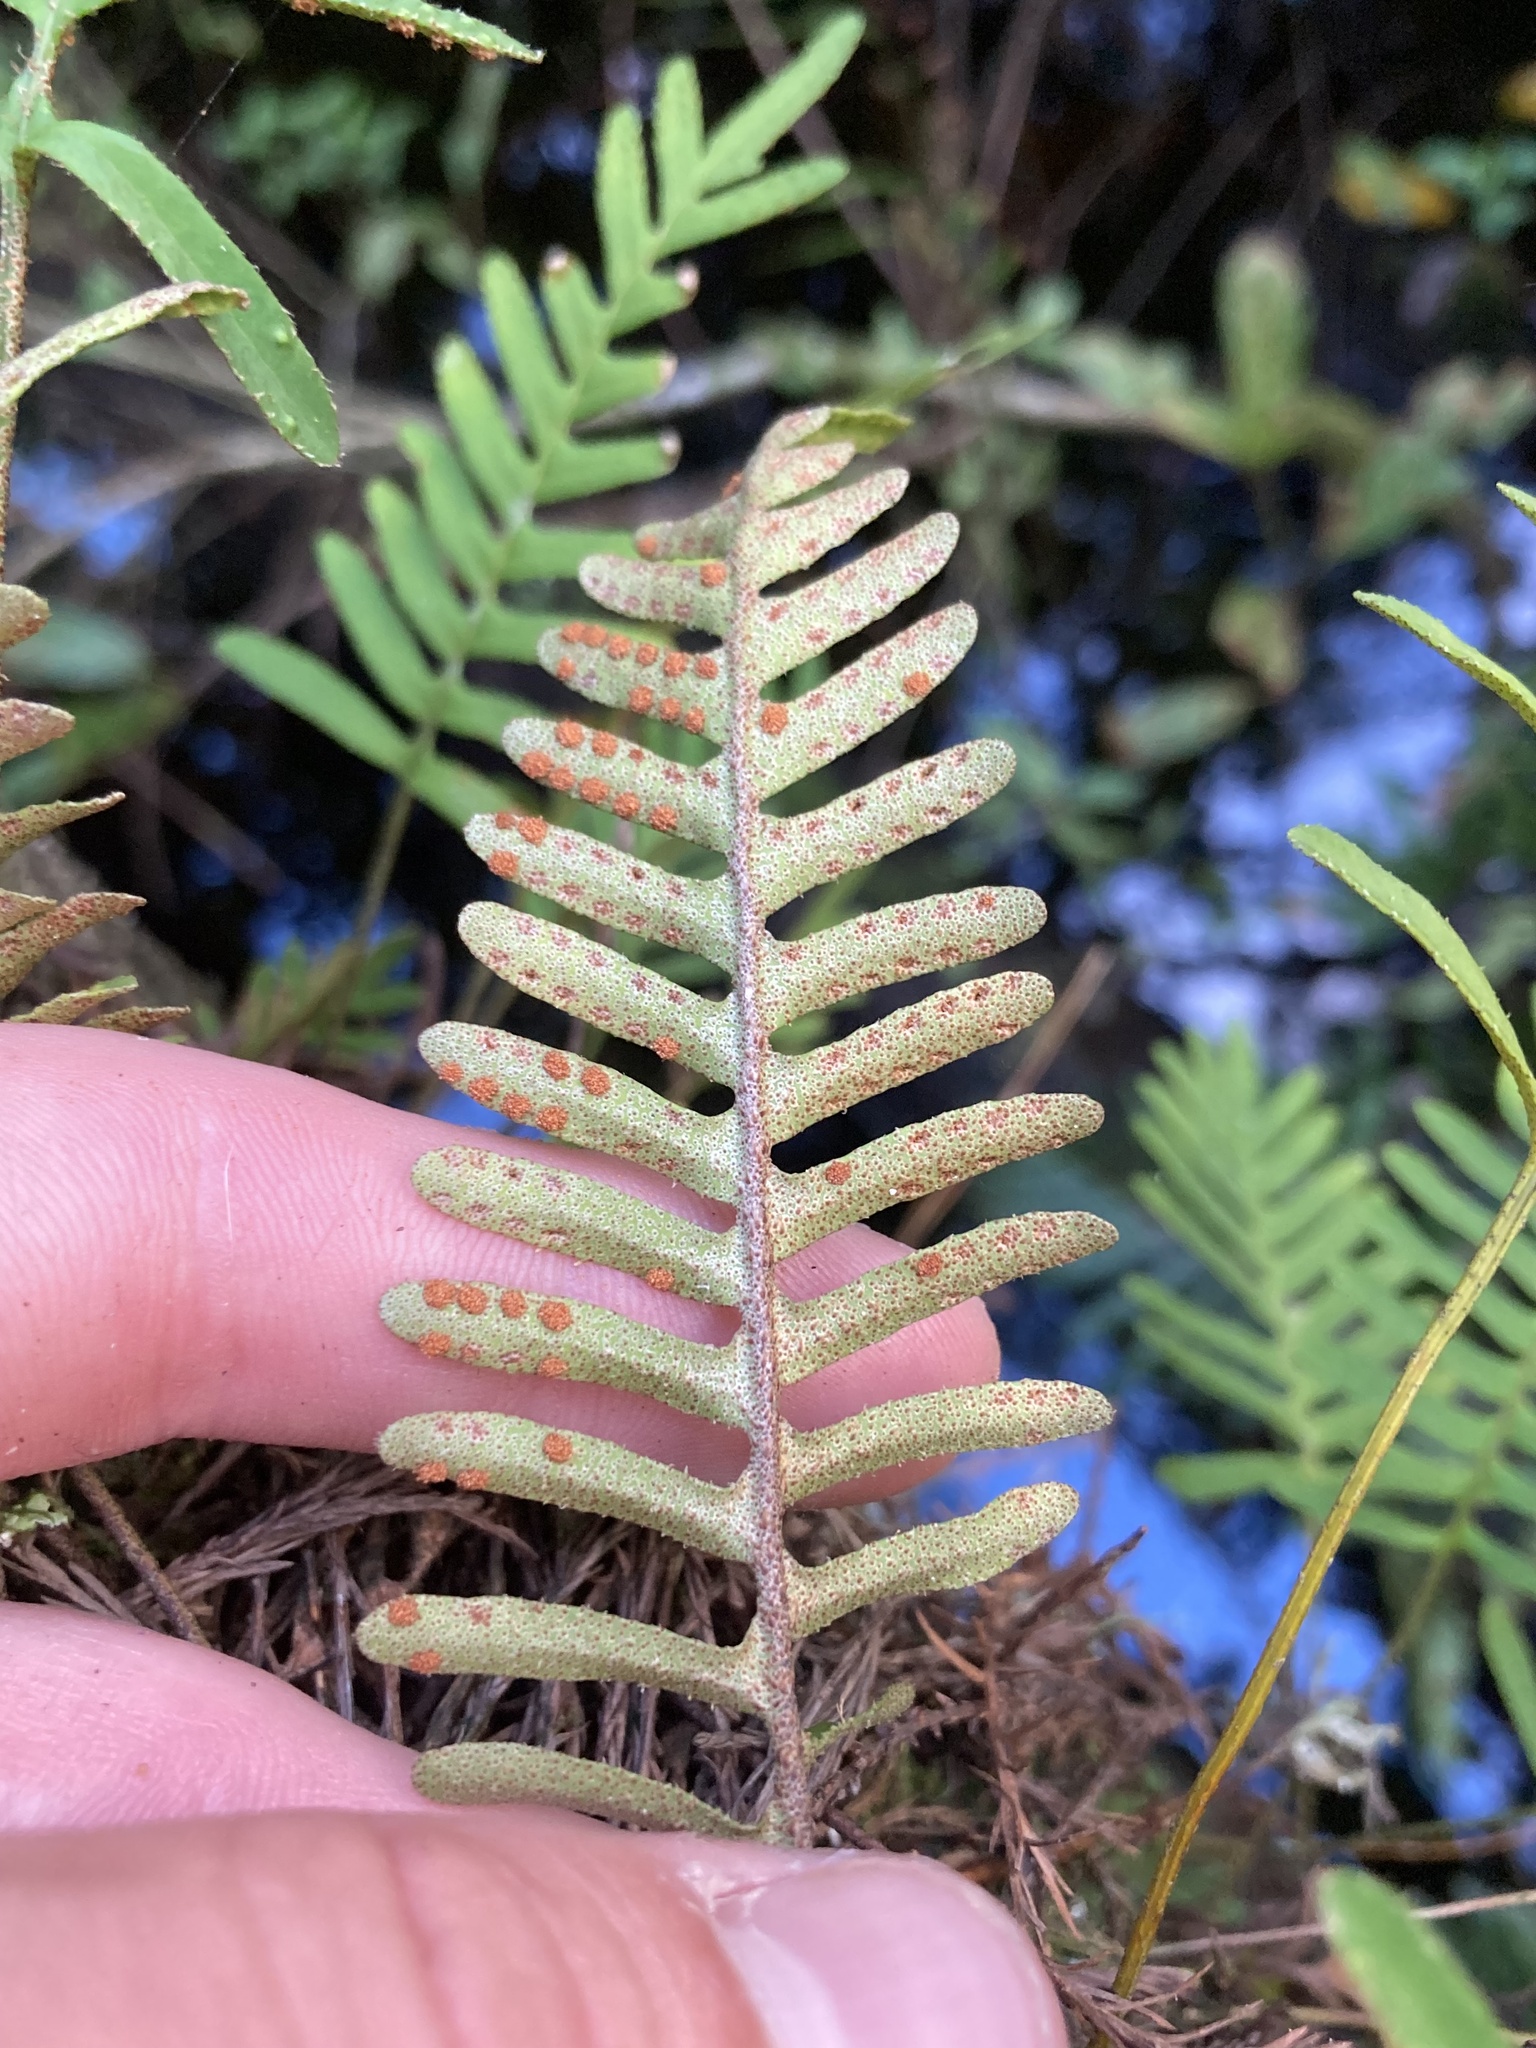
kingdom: Plantae
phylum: Tracheophyta
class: Polypodiopsida
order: Polypodiales
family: Polypodiaceae
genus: Pleopeltis
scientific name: Pleopeltis michauxiana
